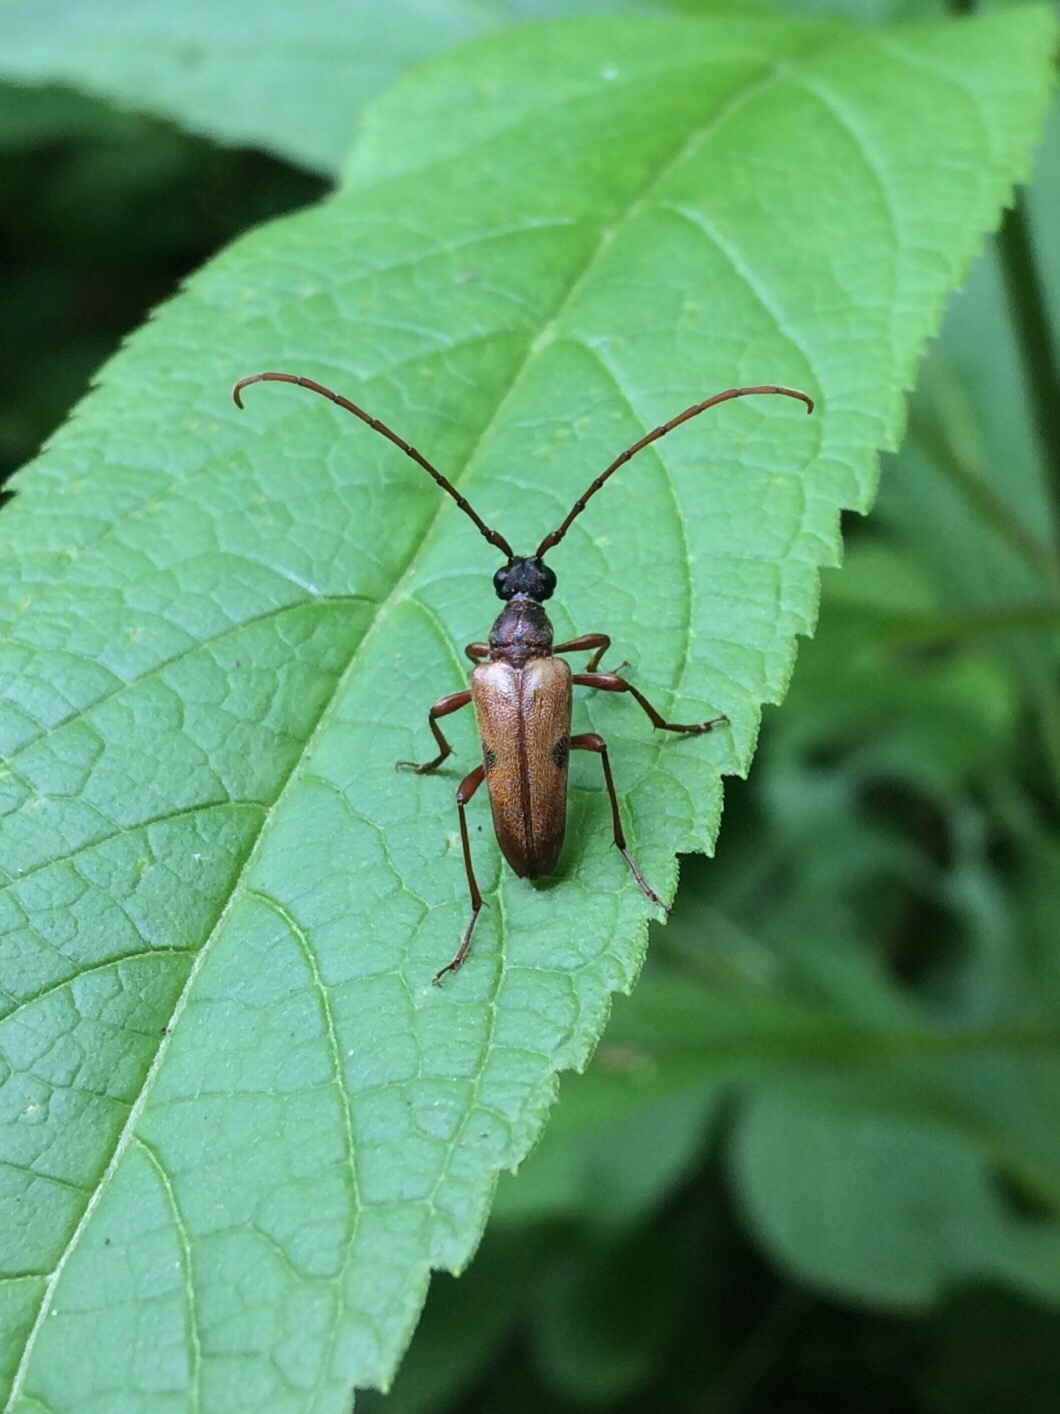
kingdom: Animalia
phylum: Arthropoda
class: Insecta
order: Coleoptera
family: Cerambycidae
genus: Lepturopsis
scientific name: Lepturopsis biforis
